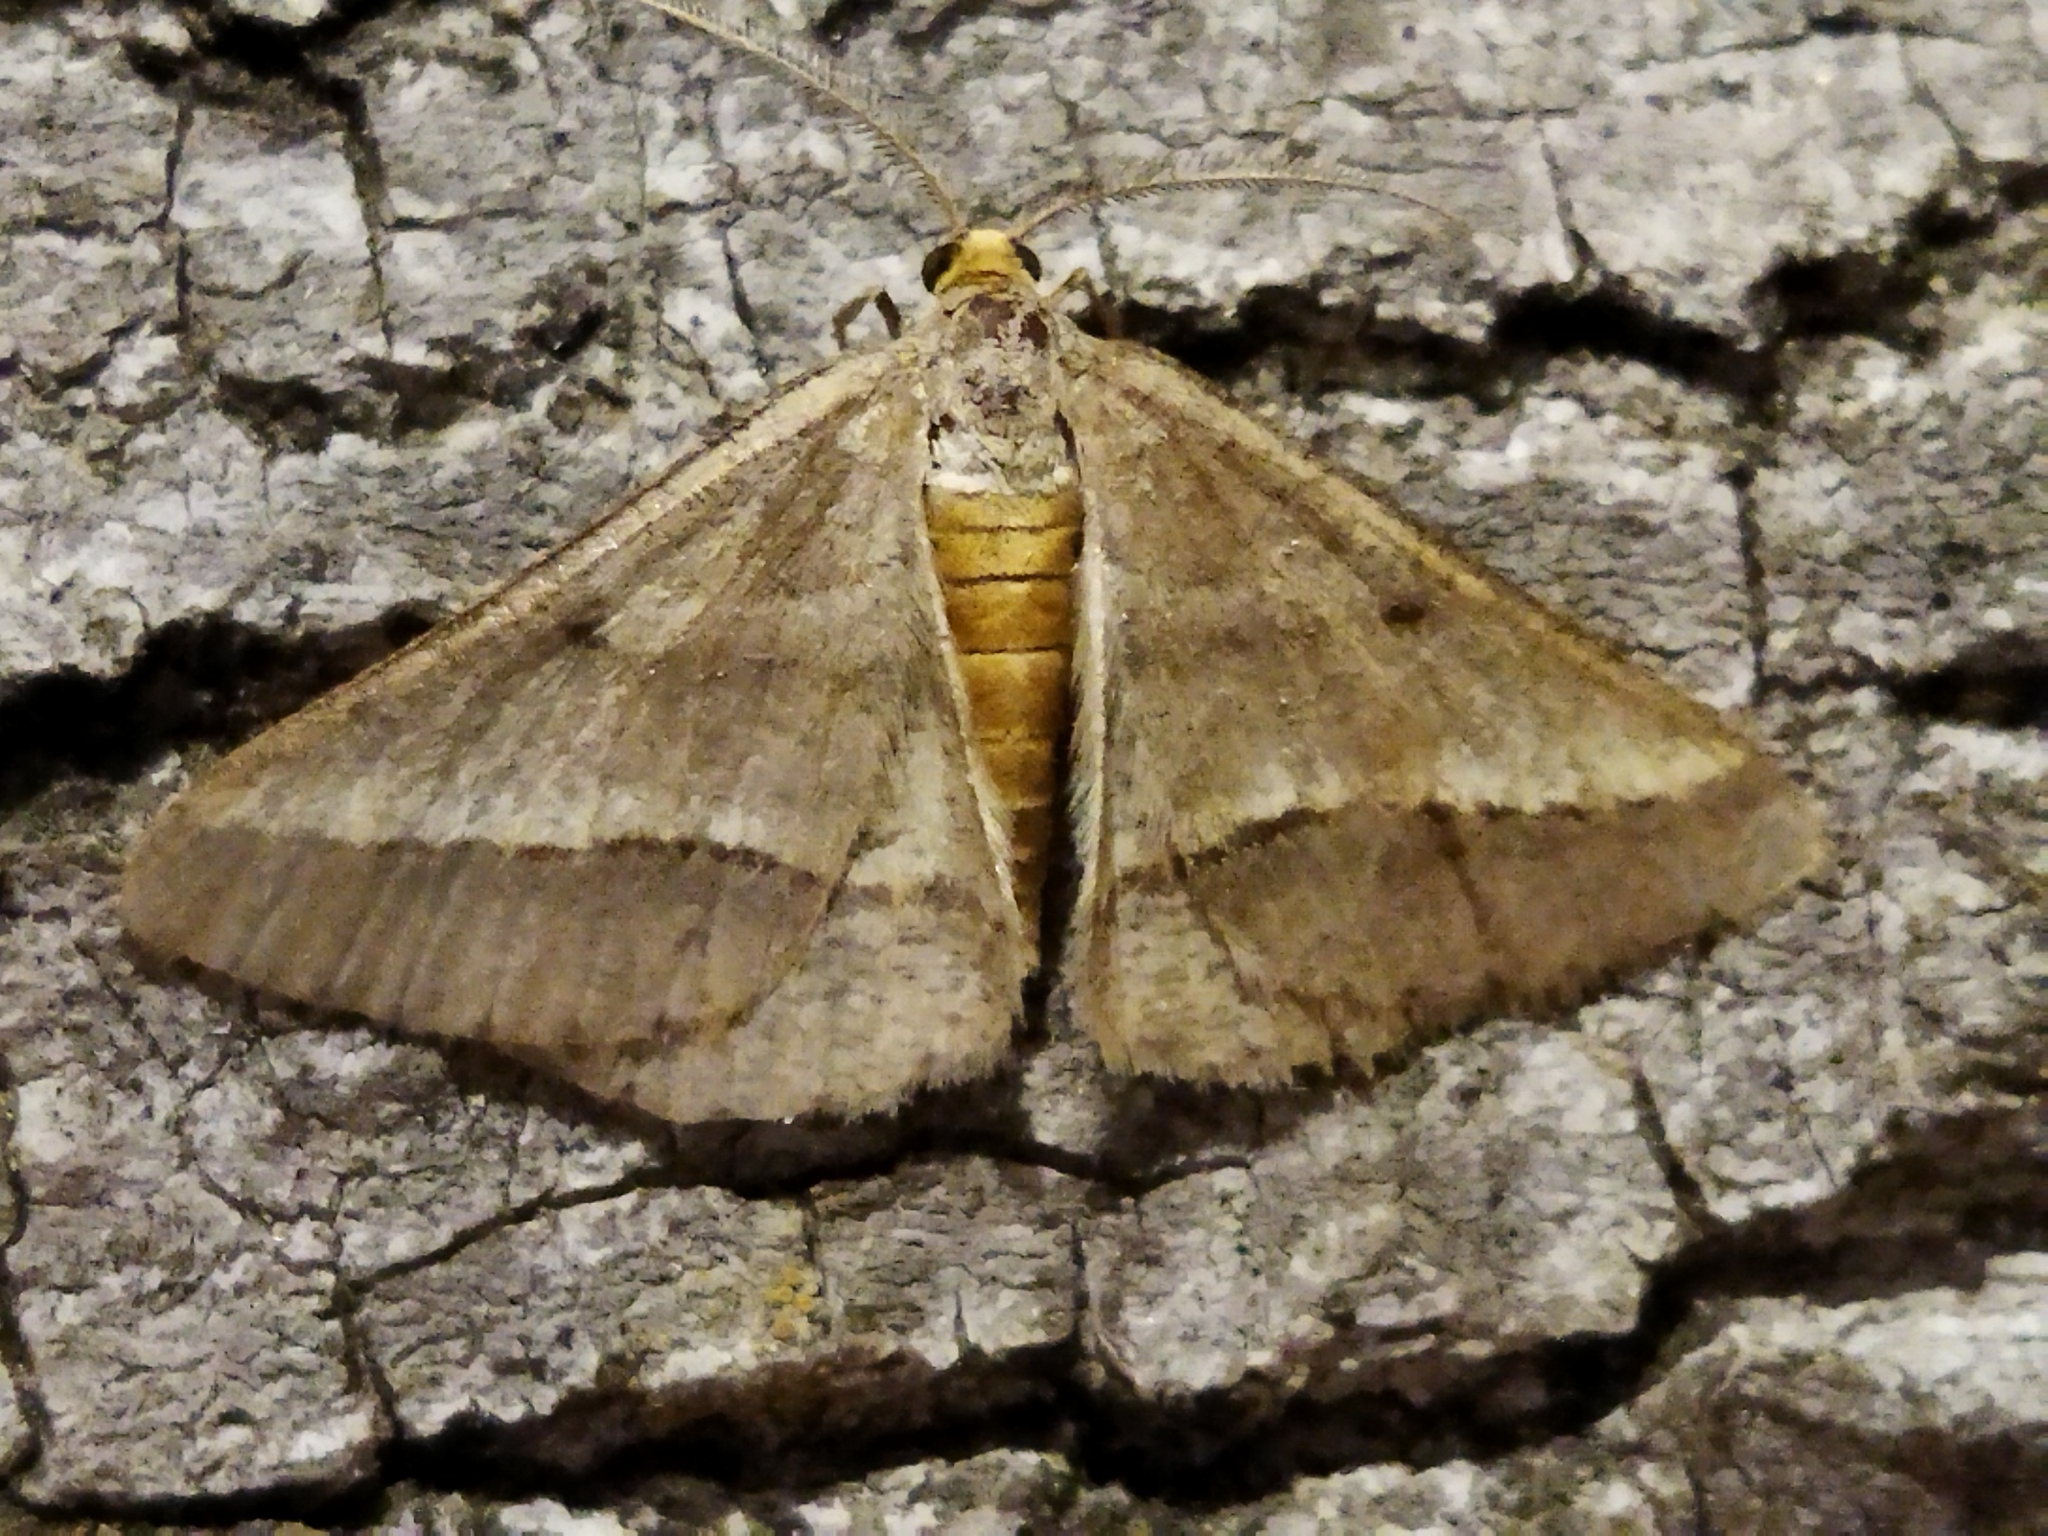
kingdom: Animalia
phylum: Arthropoda
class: Insecta
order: Lepidoptera
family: Geometridae
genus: Tephrina
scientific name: Tephrina arenacearia
